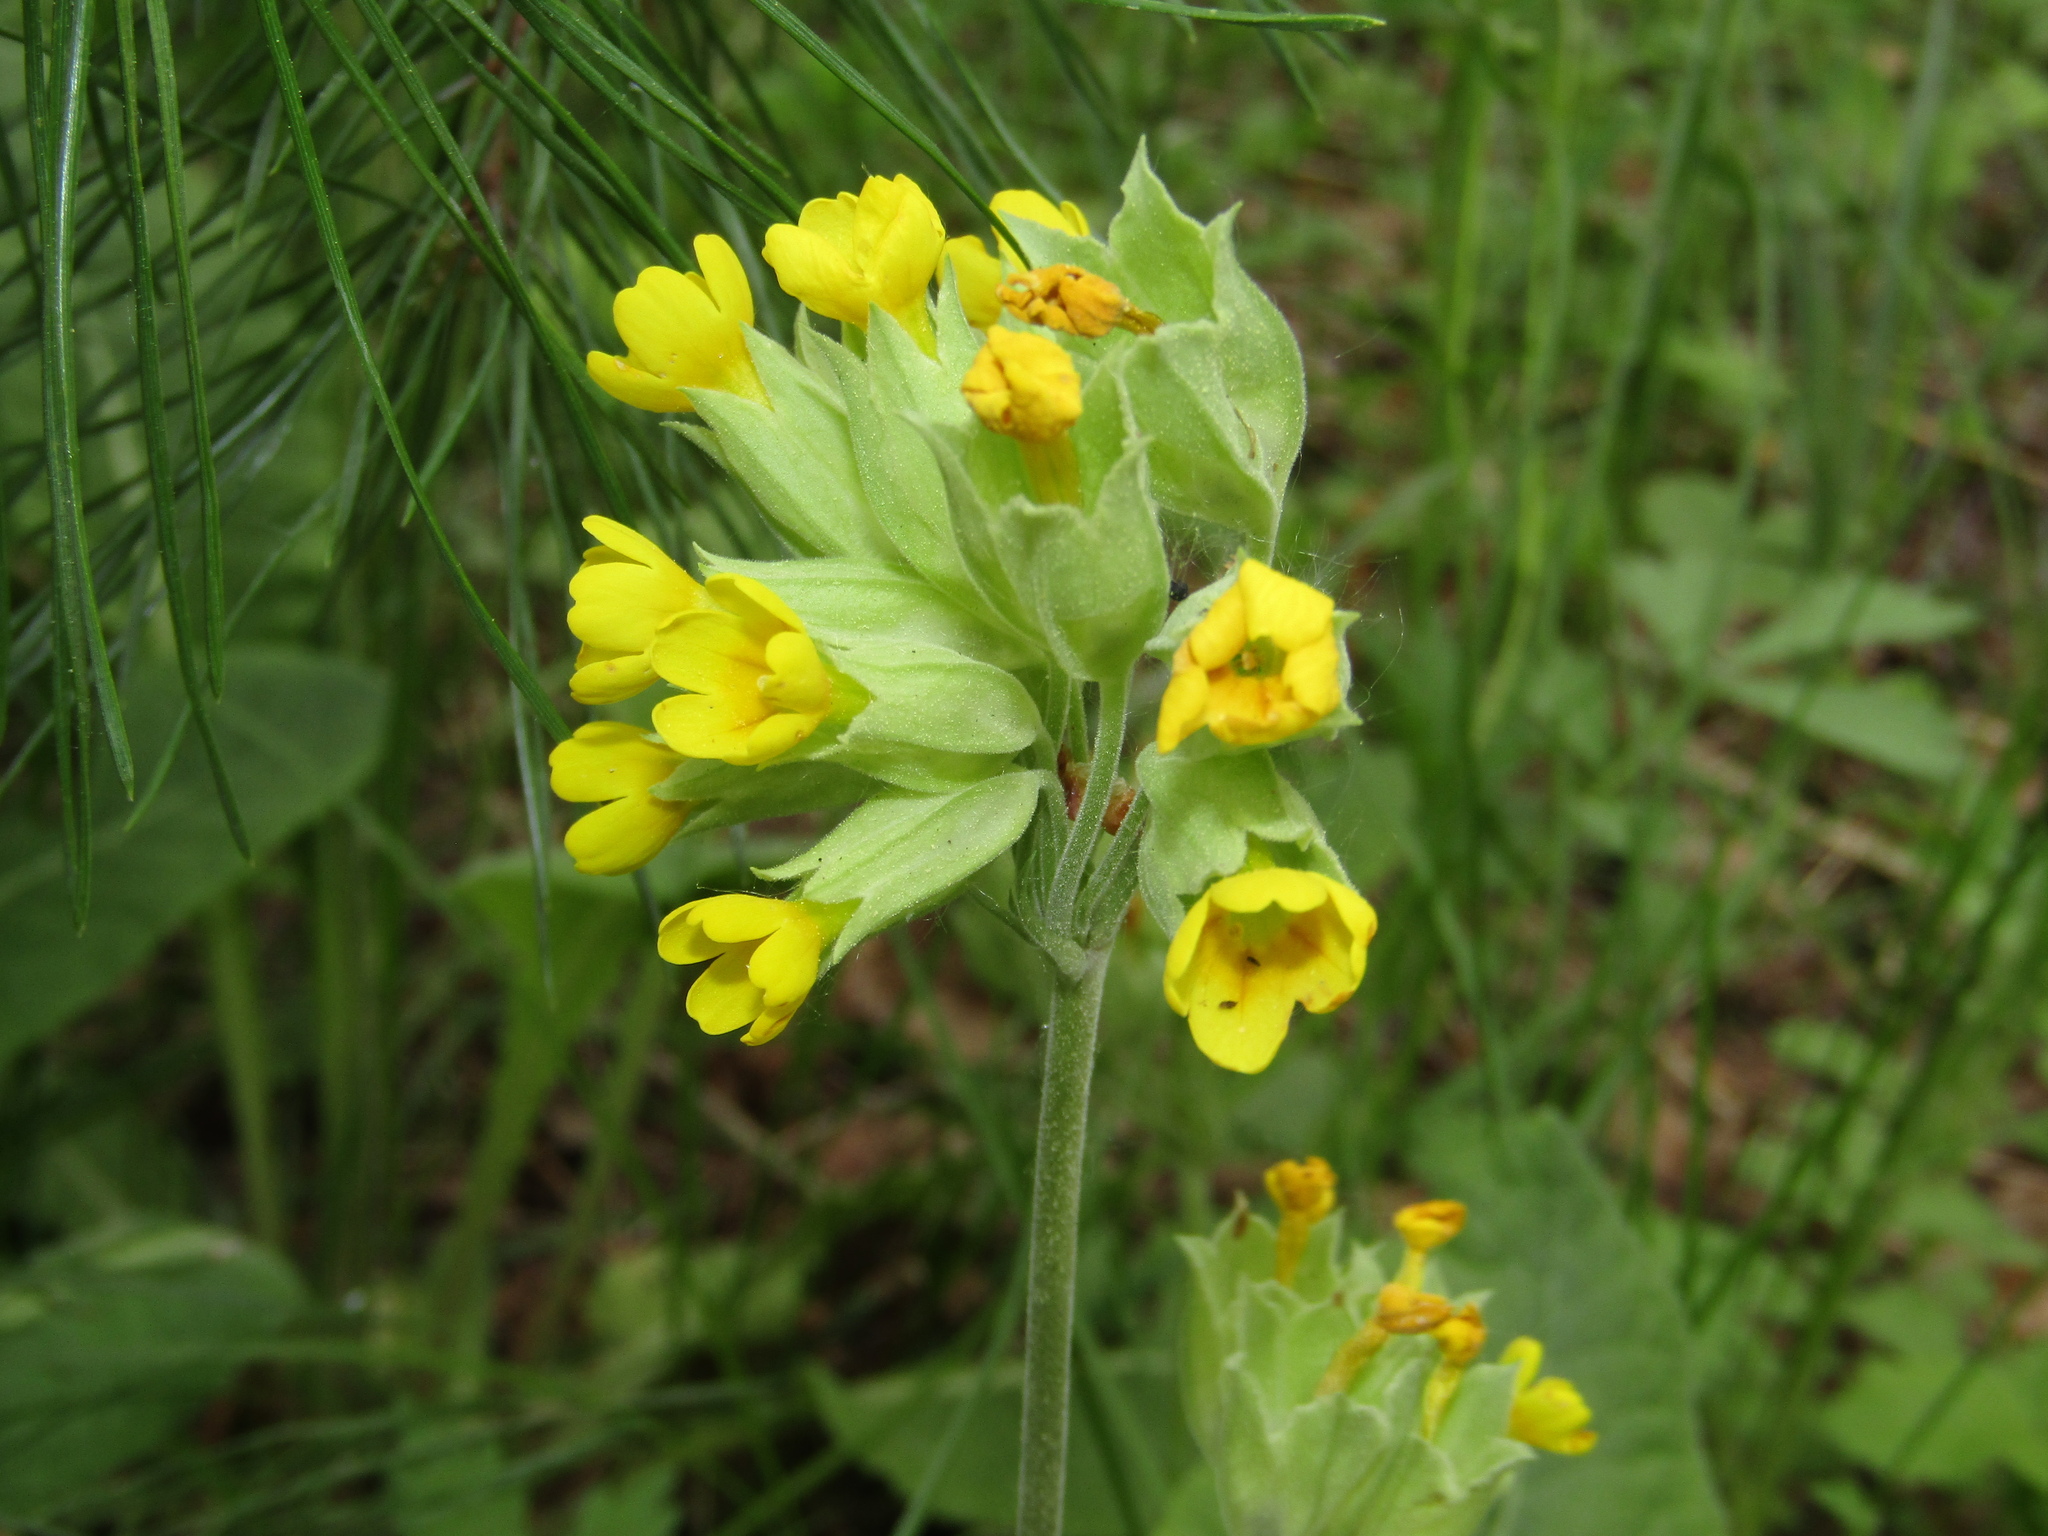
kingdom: Plantae
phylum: Tracheophyta
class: Magnoliopsida
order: Ericales
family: Primulaceae
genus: Primula
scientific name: Primula veris
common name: Cowslip
